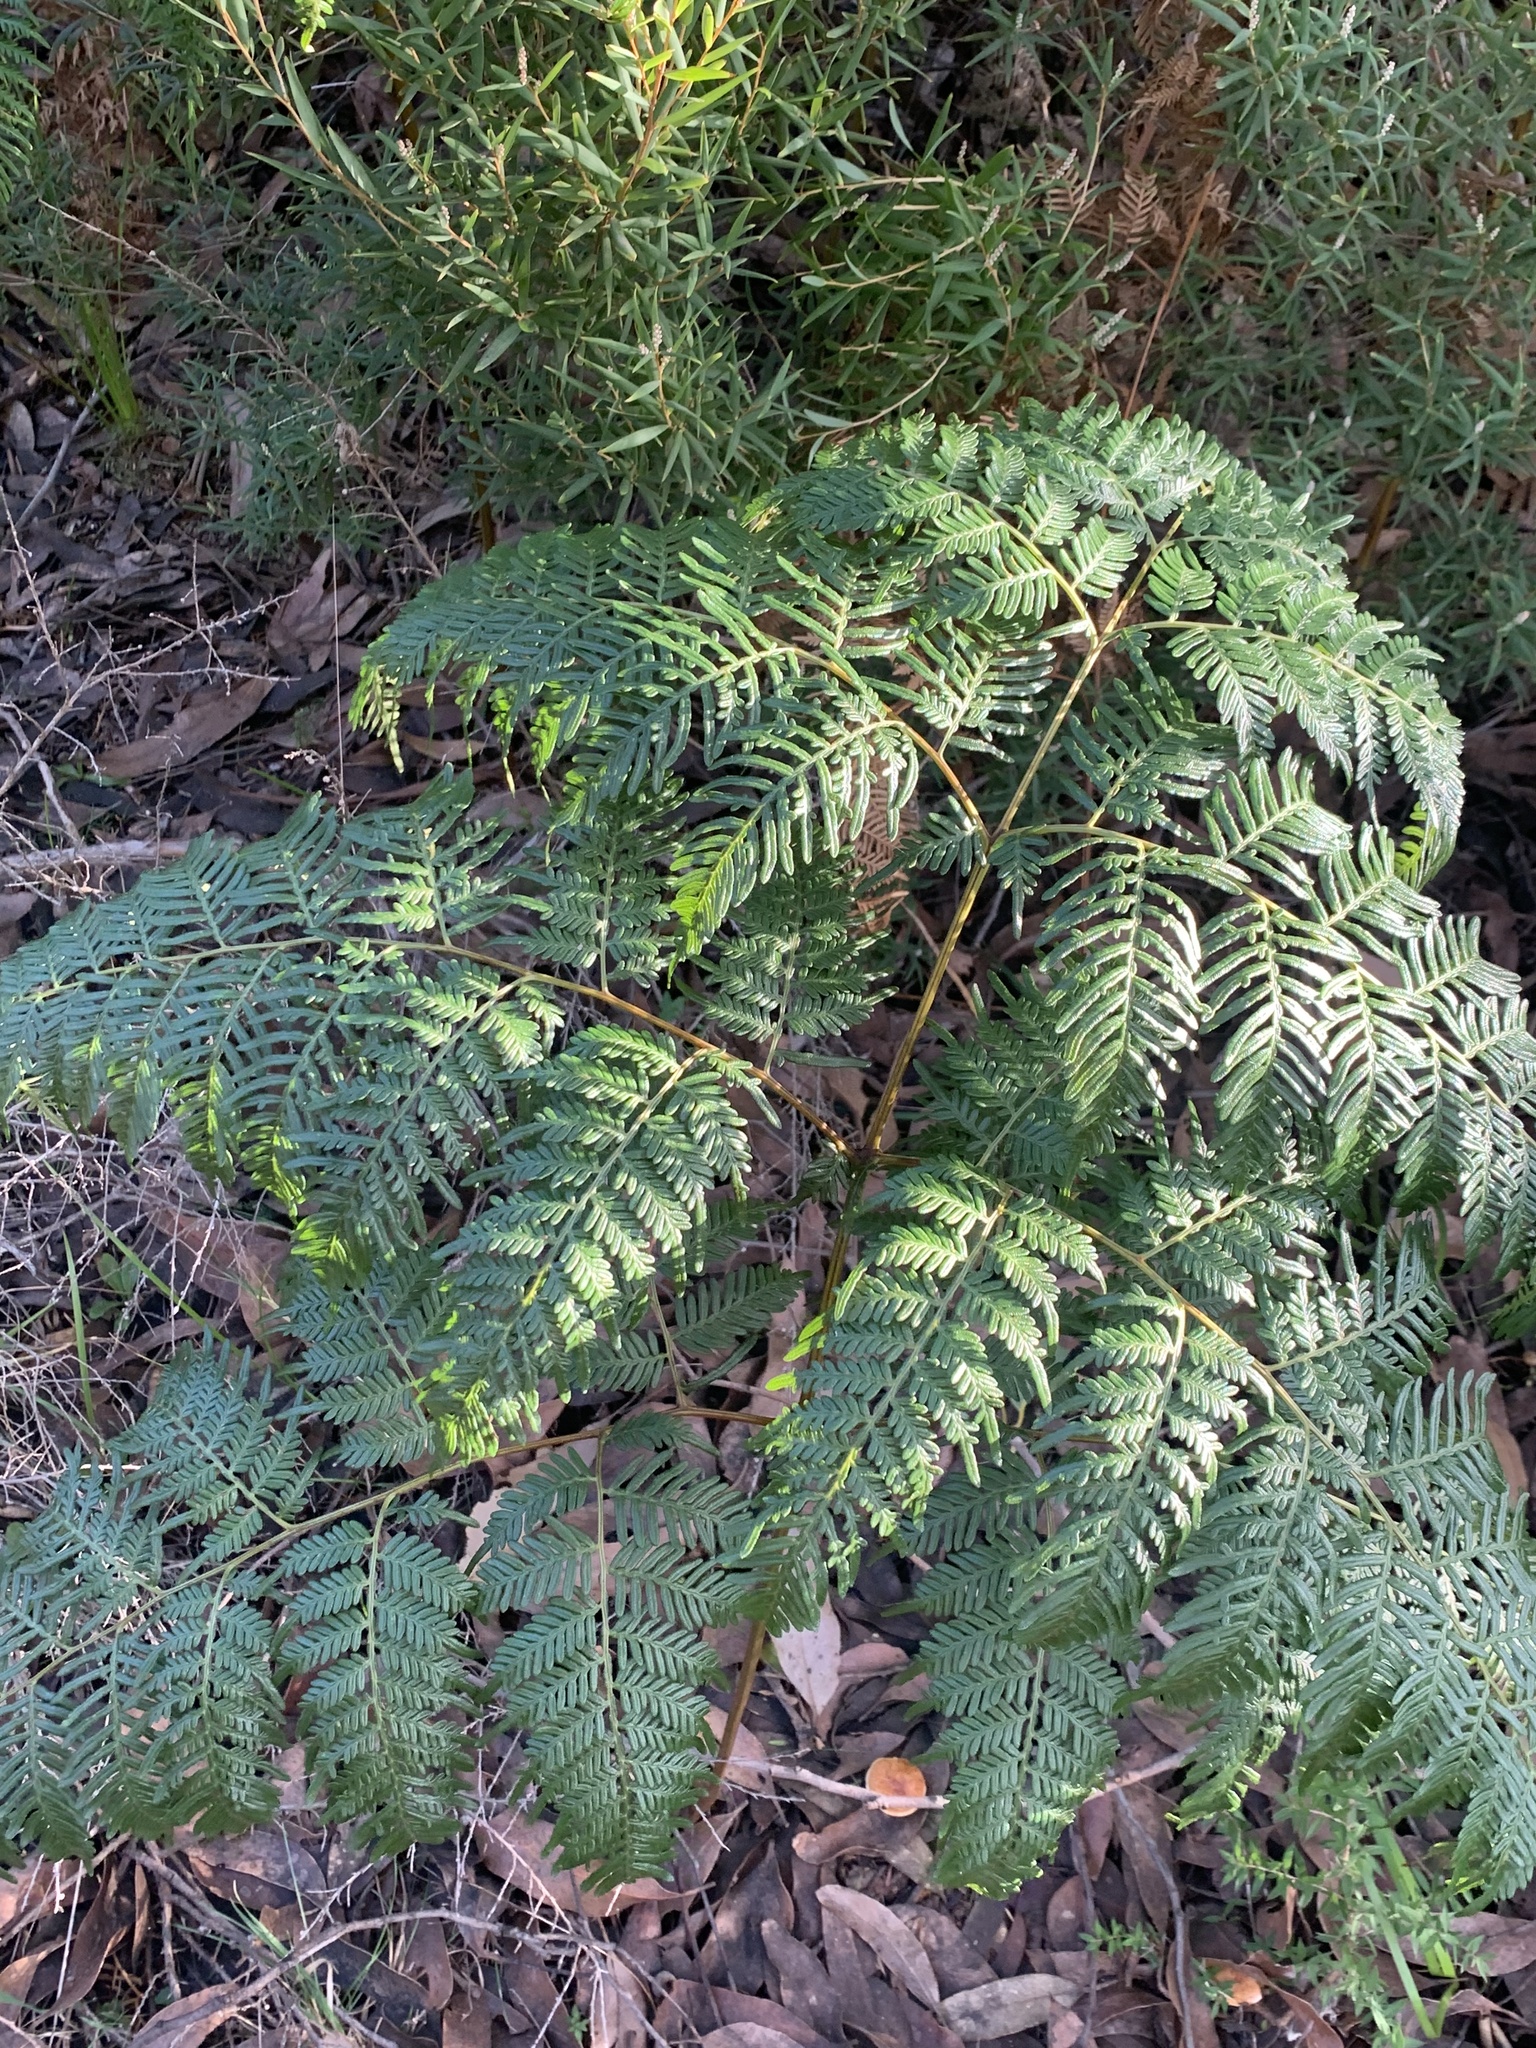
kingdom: Plantae
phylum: Tracheophyta
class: Polypodiopsida
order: Polypodiales
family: Dennstaedtiaceae
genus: Pteridium
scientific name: Pteridium esculentum
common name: Bracken fern
